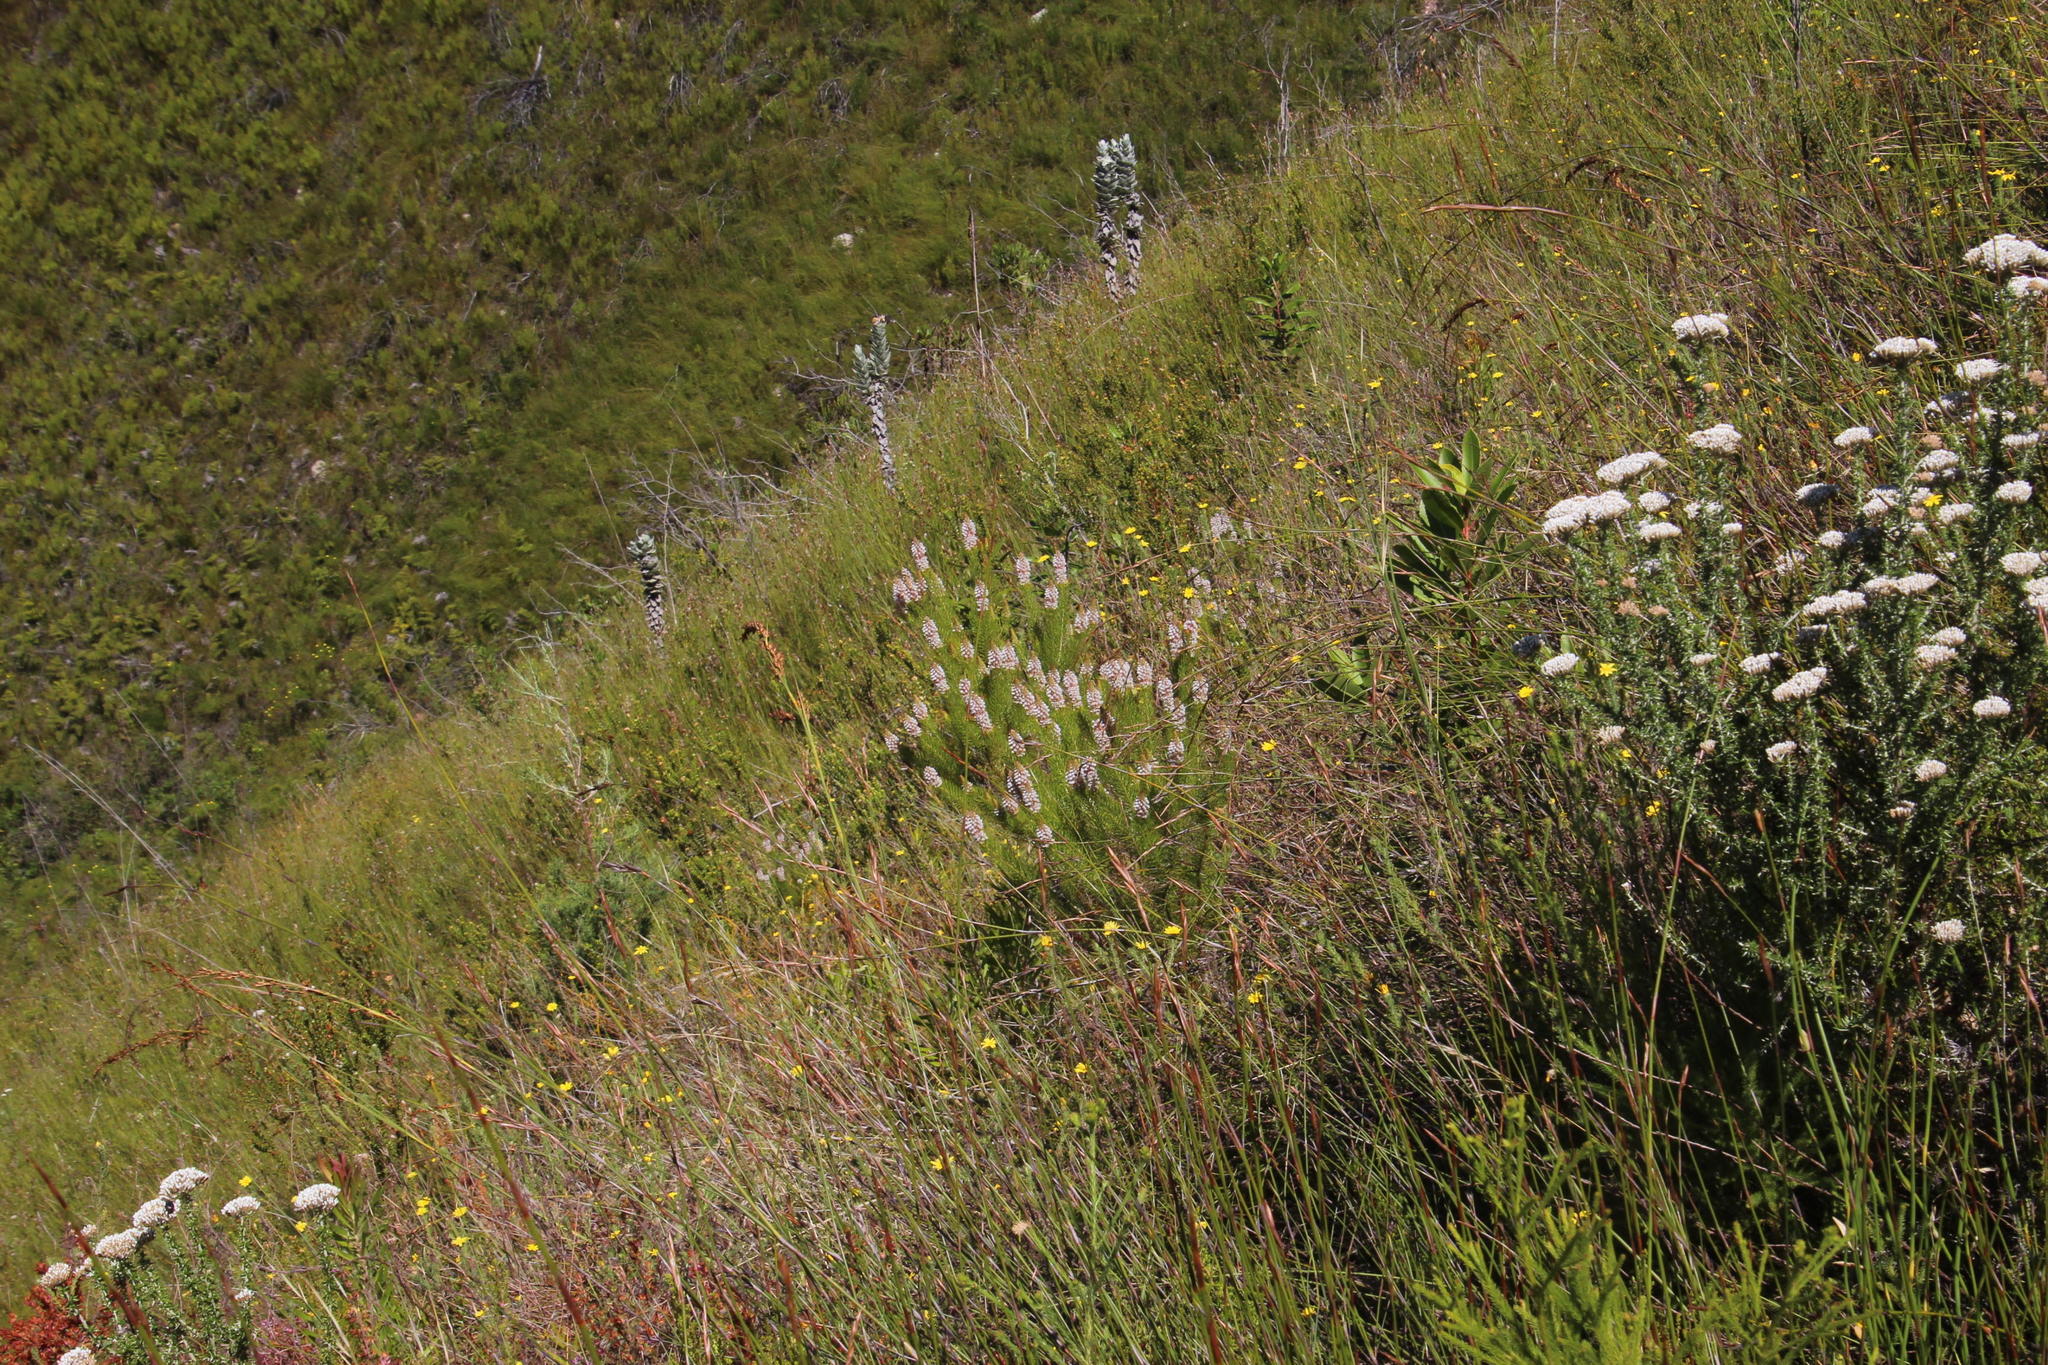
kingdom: Plantae
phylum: Tracheophyta
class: Magnoliopsida
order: Proteales
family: Proteaceae
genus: Spatalla
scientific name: Spatalla parilis
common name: Spike spoon
